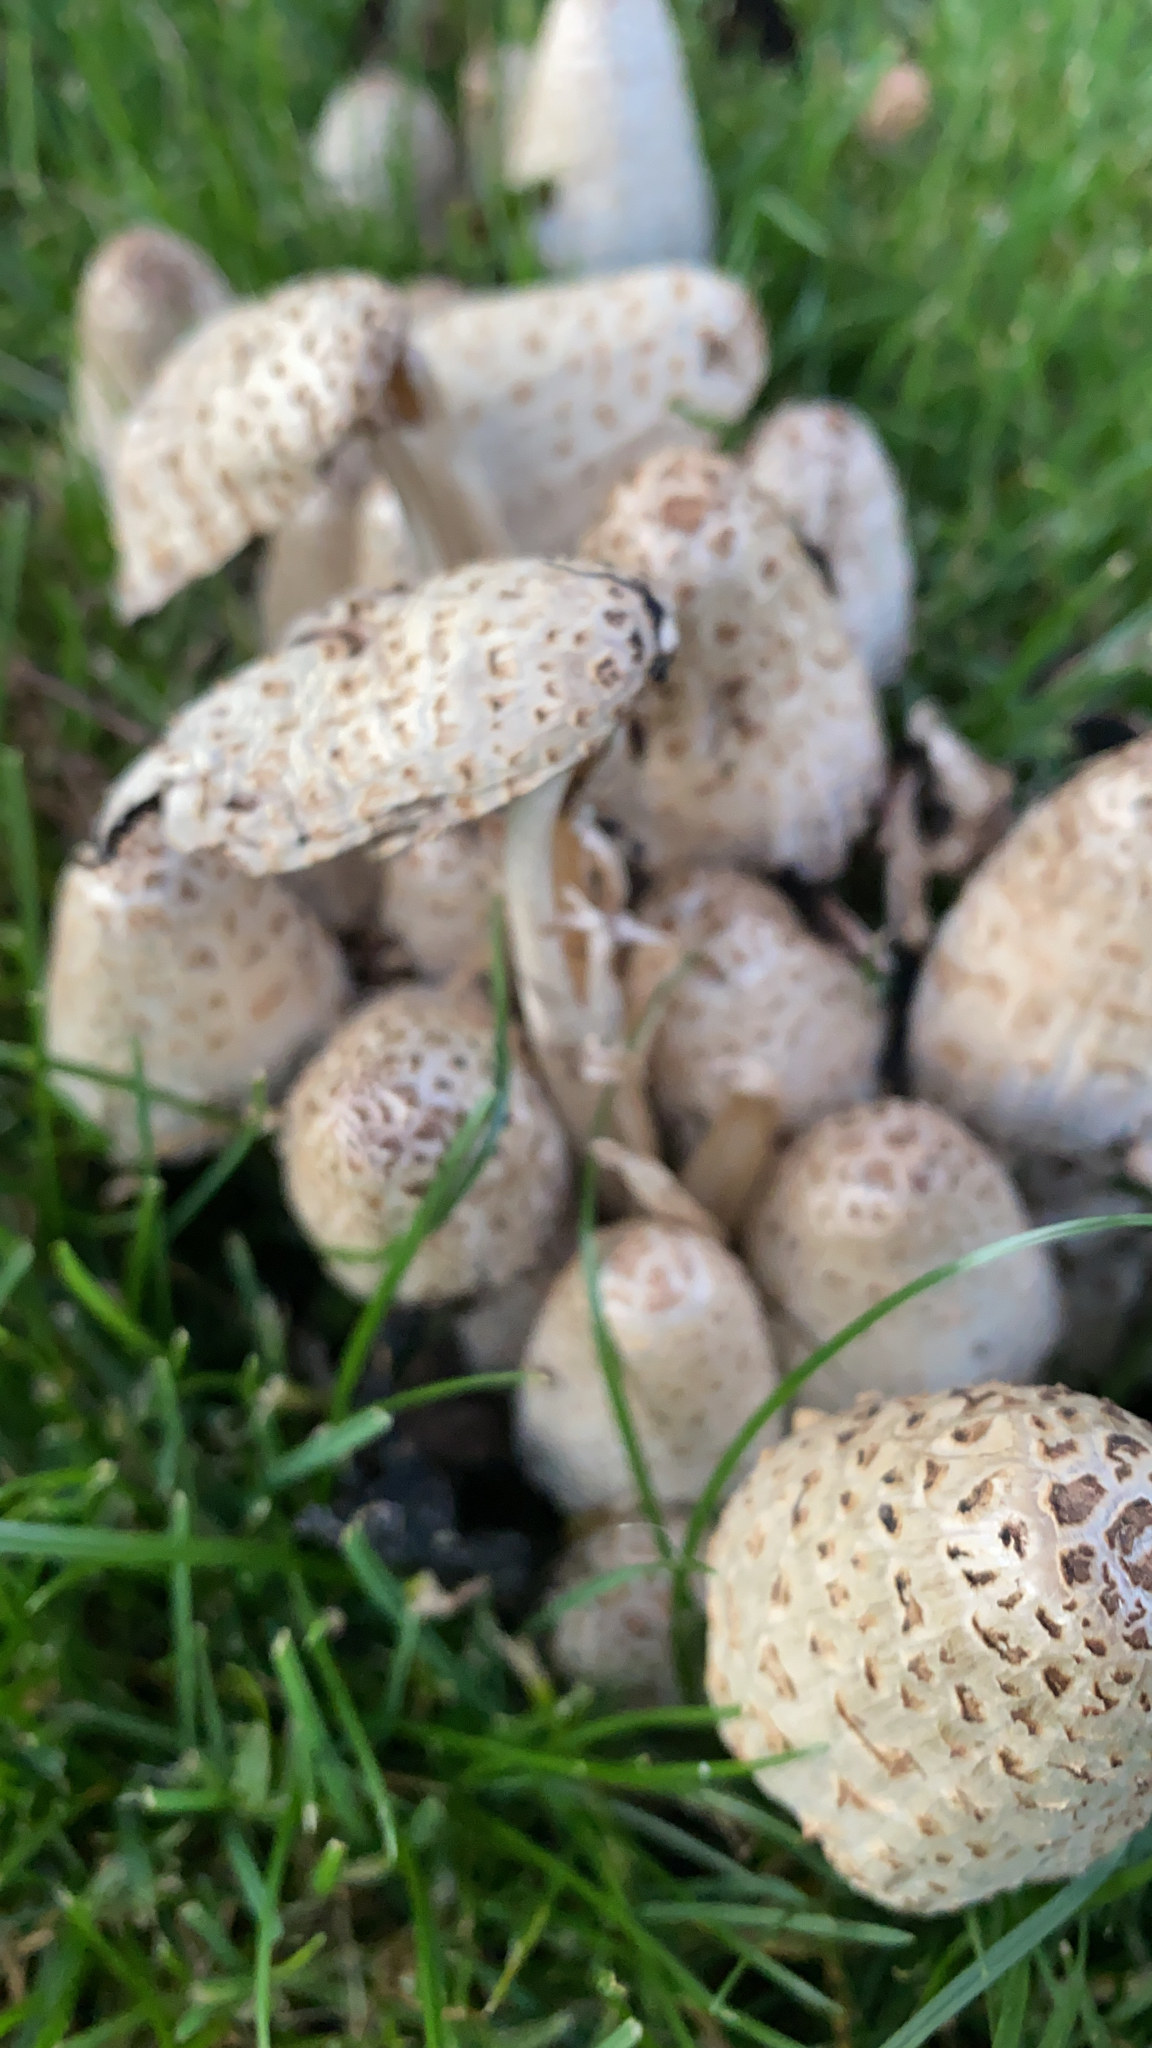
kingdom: Fungi
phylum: Basidiomycota
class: Agaricomycetes
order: Agaricales
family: Psathyrellaceae
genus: Coprinopsis
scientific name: Coprinopsis variegata
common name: Scaly ink cap
